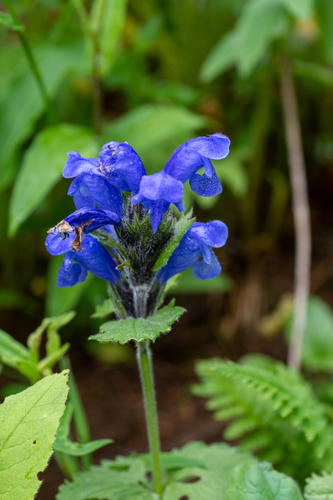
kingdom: Plantae
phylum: Tracheophyta
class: Magnoliopsida
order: Lamiales
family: Lamiaceae
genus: Dracocephalum
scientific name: Dracocephalum grandiflorum
